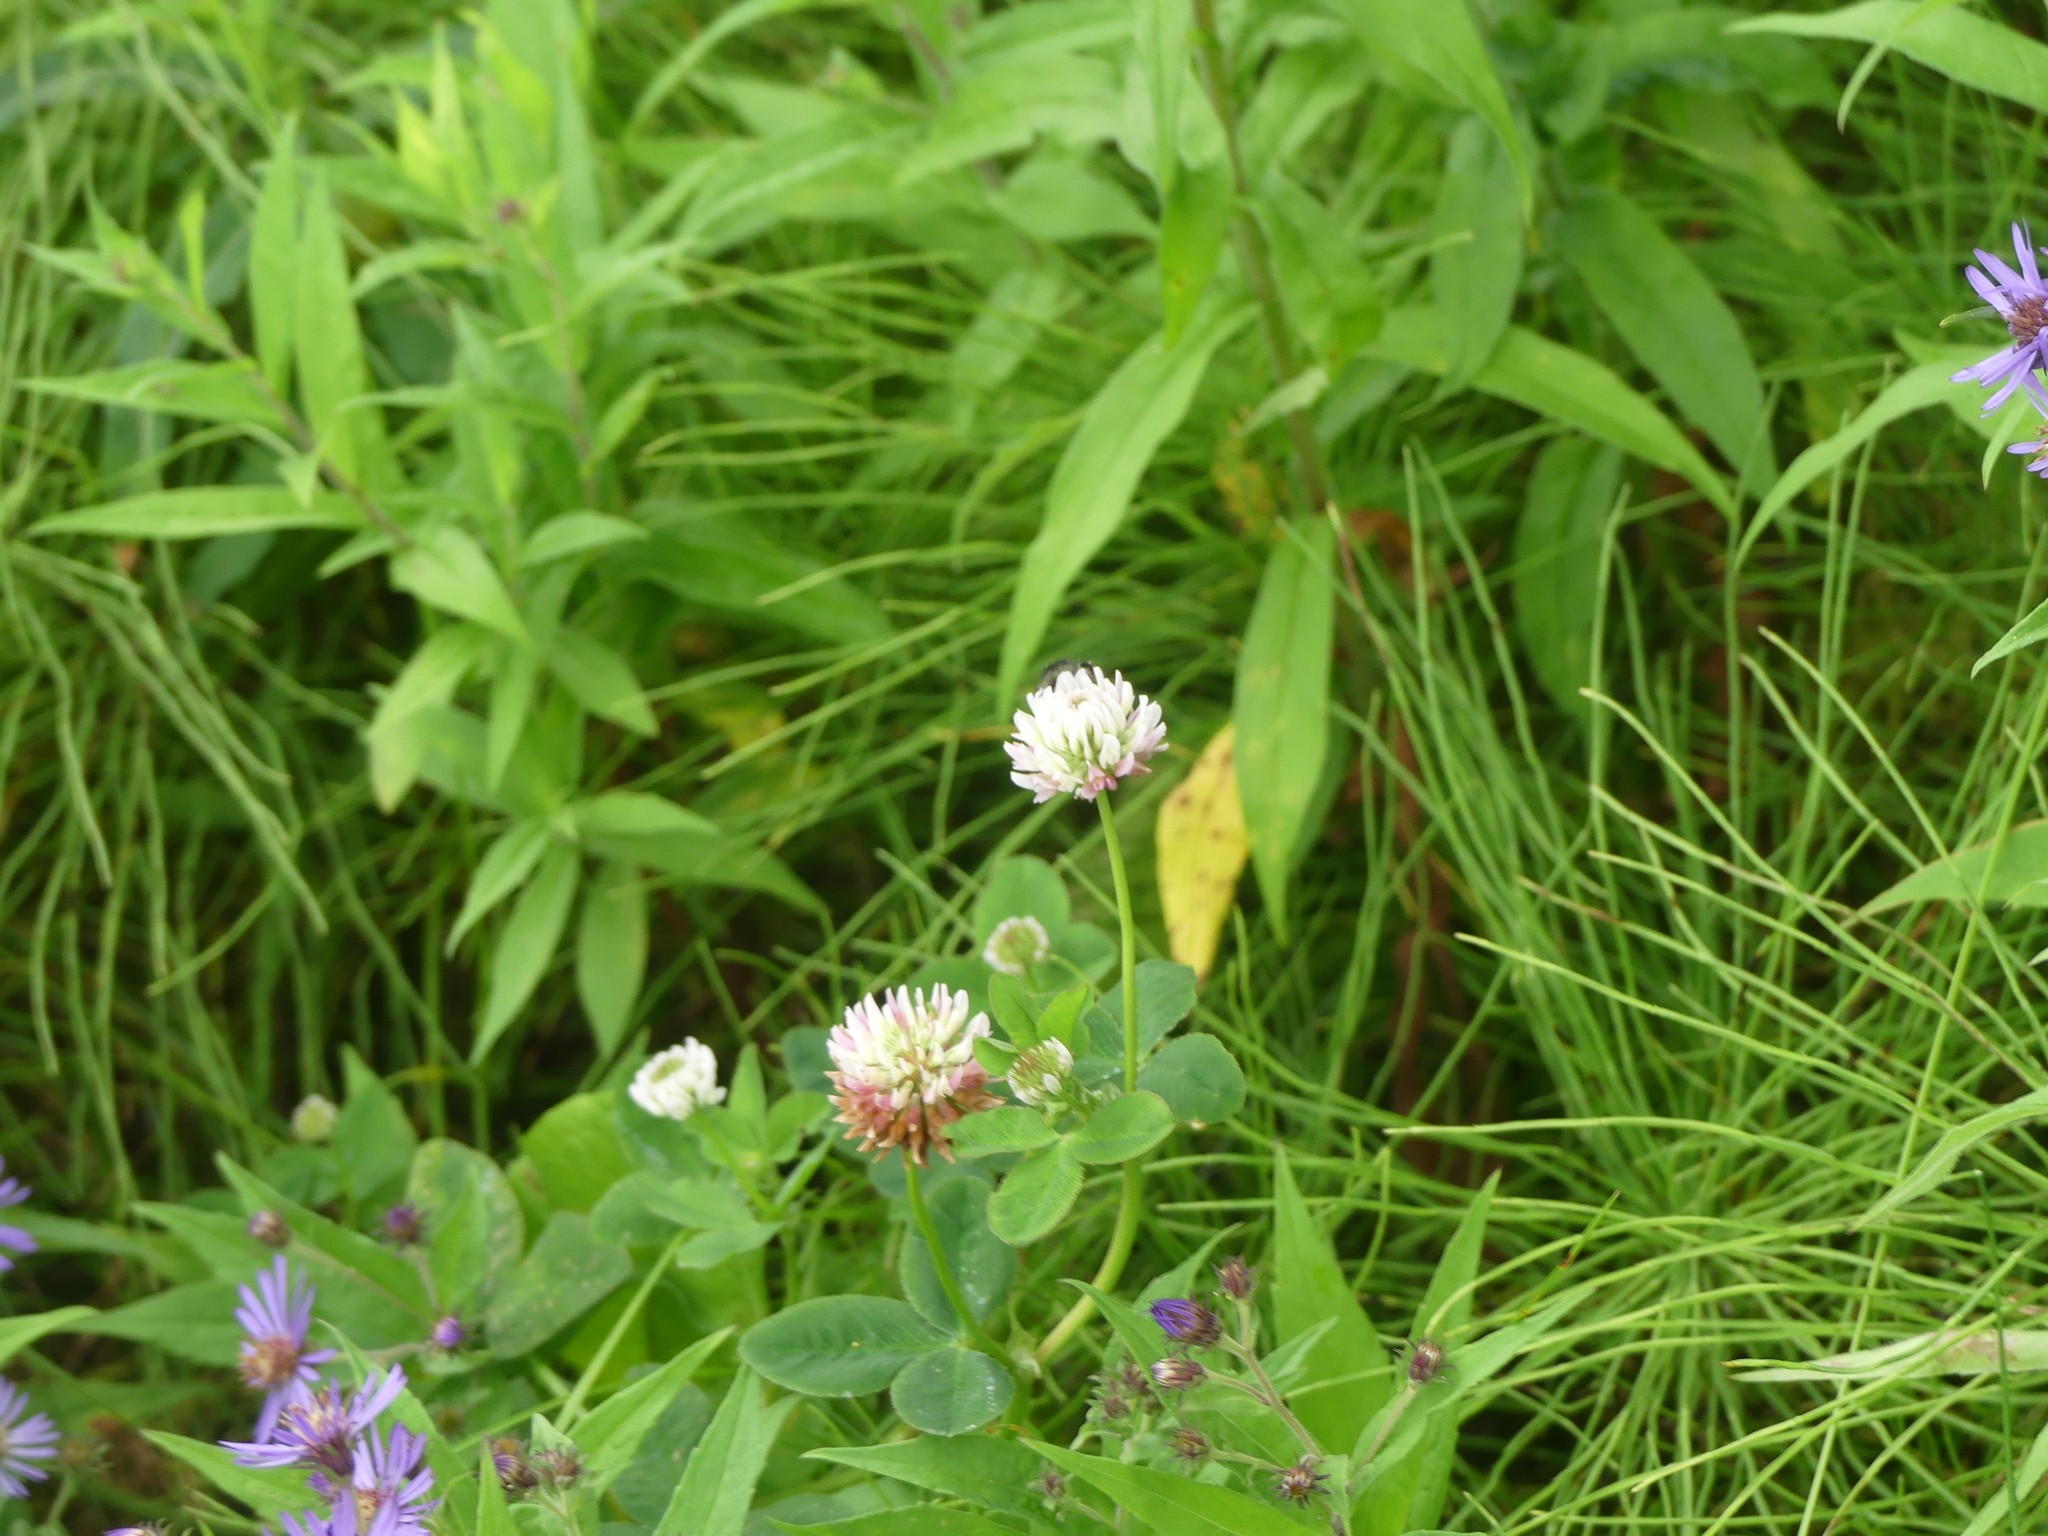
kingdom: Plantae
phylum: Tracheophyta
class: Magnoliopsida
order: Fabales
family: Fabaceae
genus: Trifolium
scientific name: Trifolium hybridum
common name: Alsike clover
